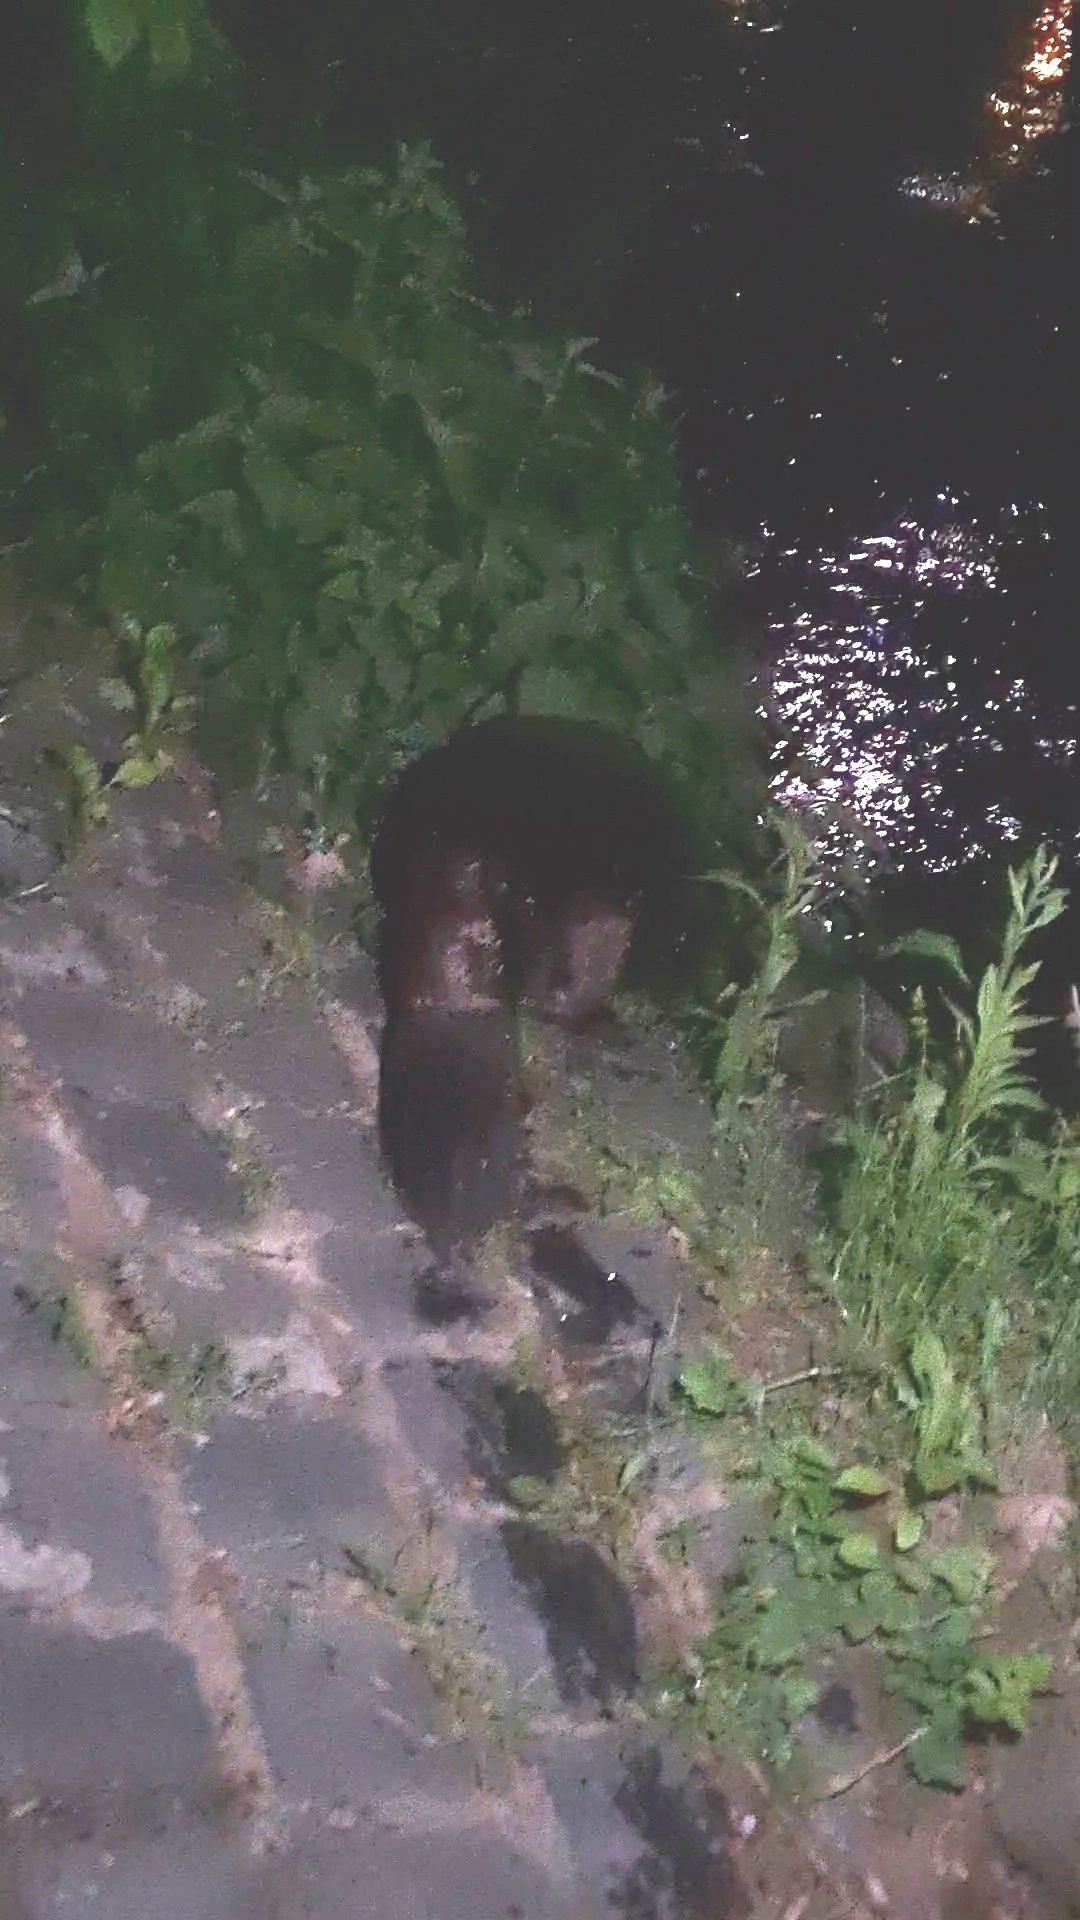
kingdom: Animalia
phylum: Chordata
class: Mammalia
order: Rodentia
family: Castoridae
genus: Castor
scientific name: Castor fiber
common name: Eurasian beaver
